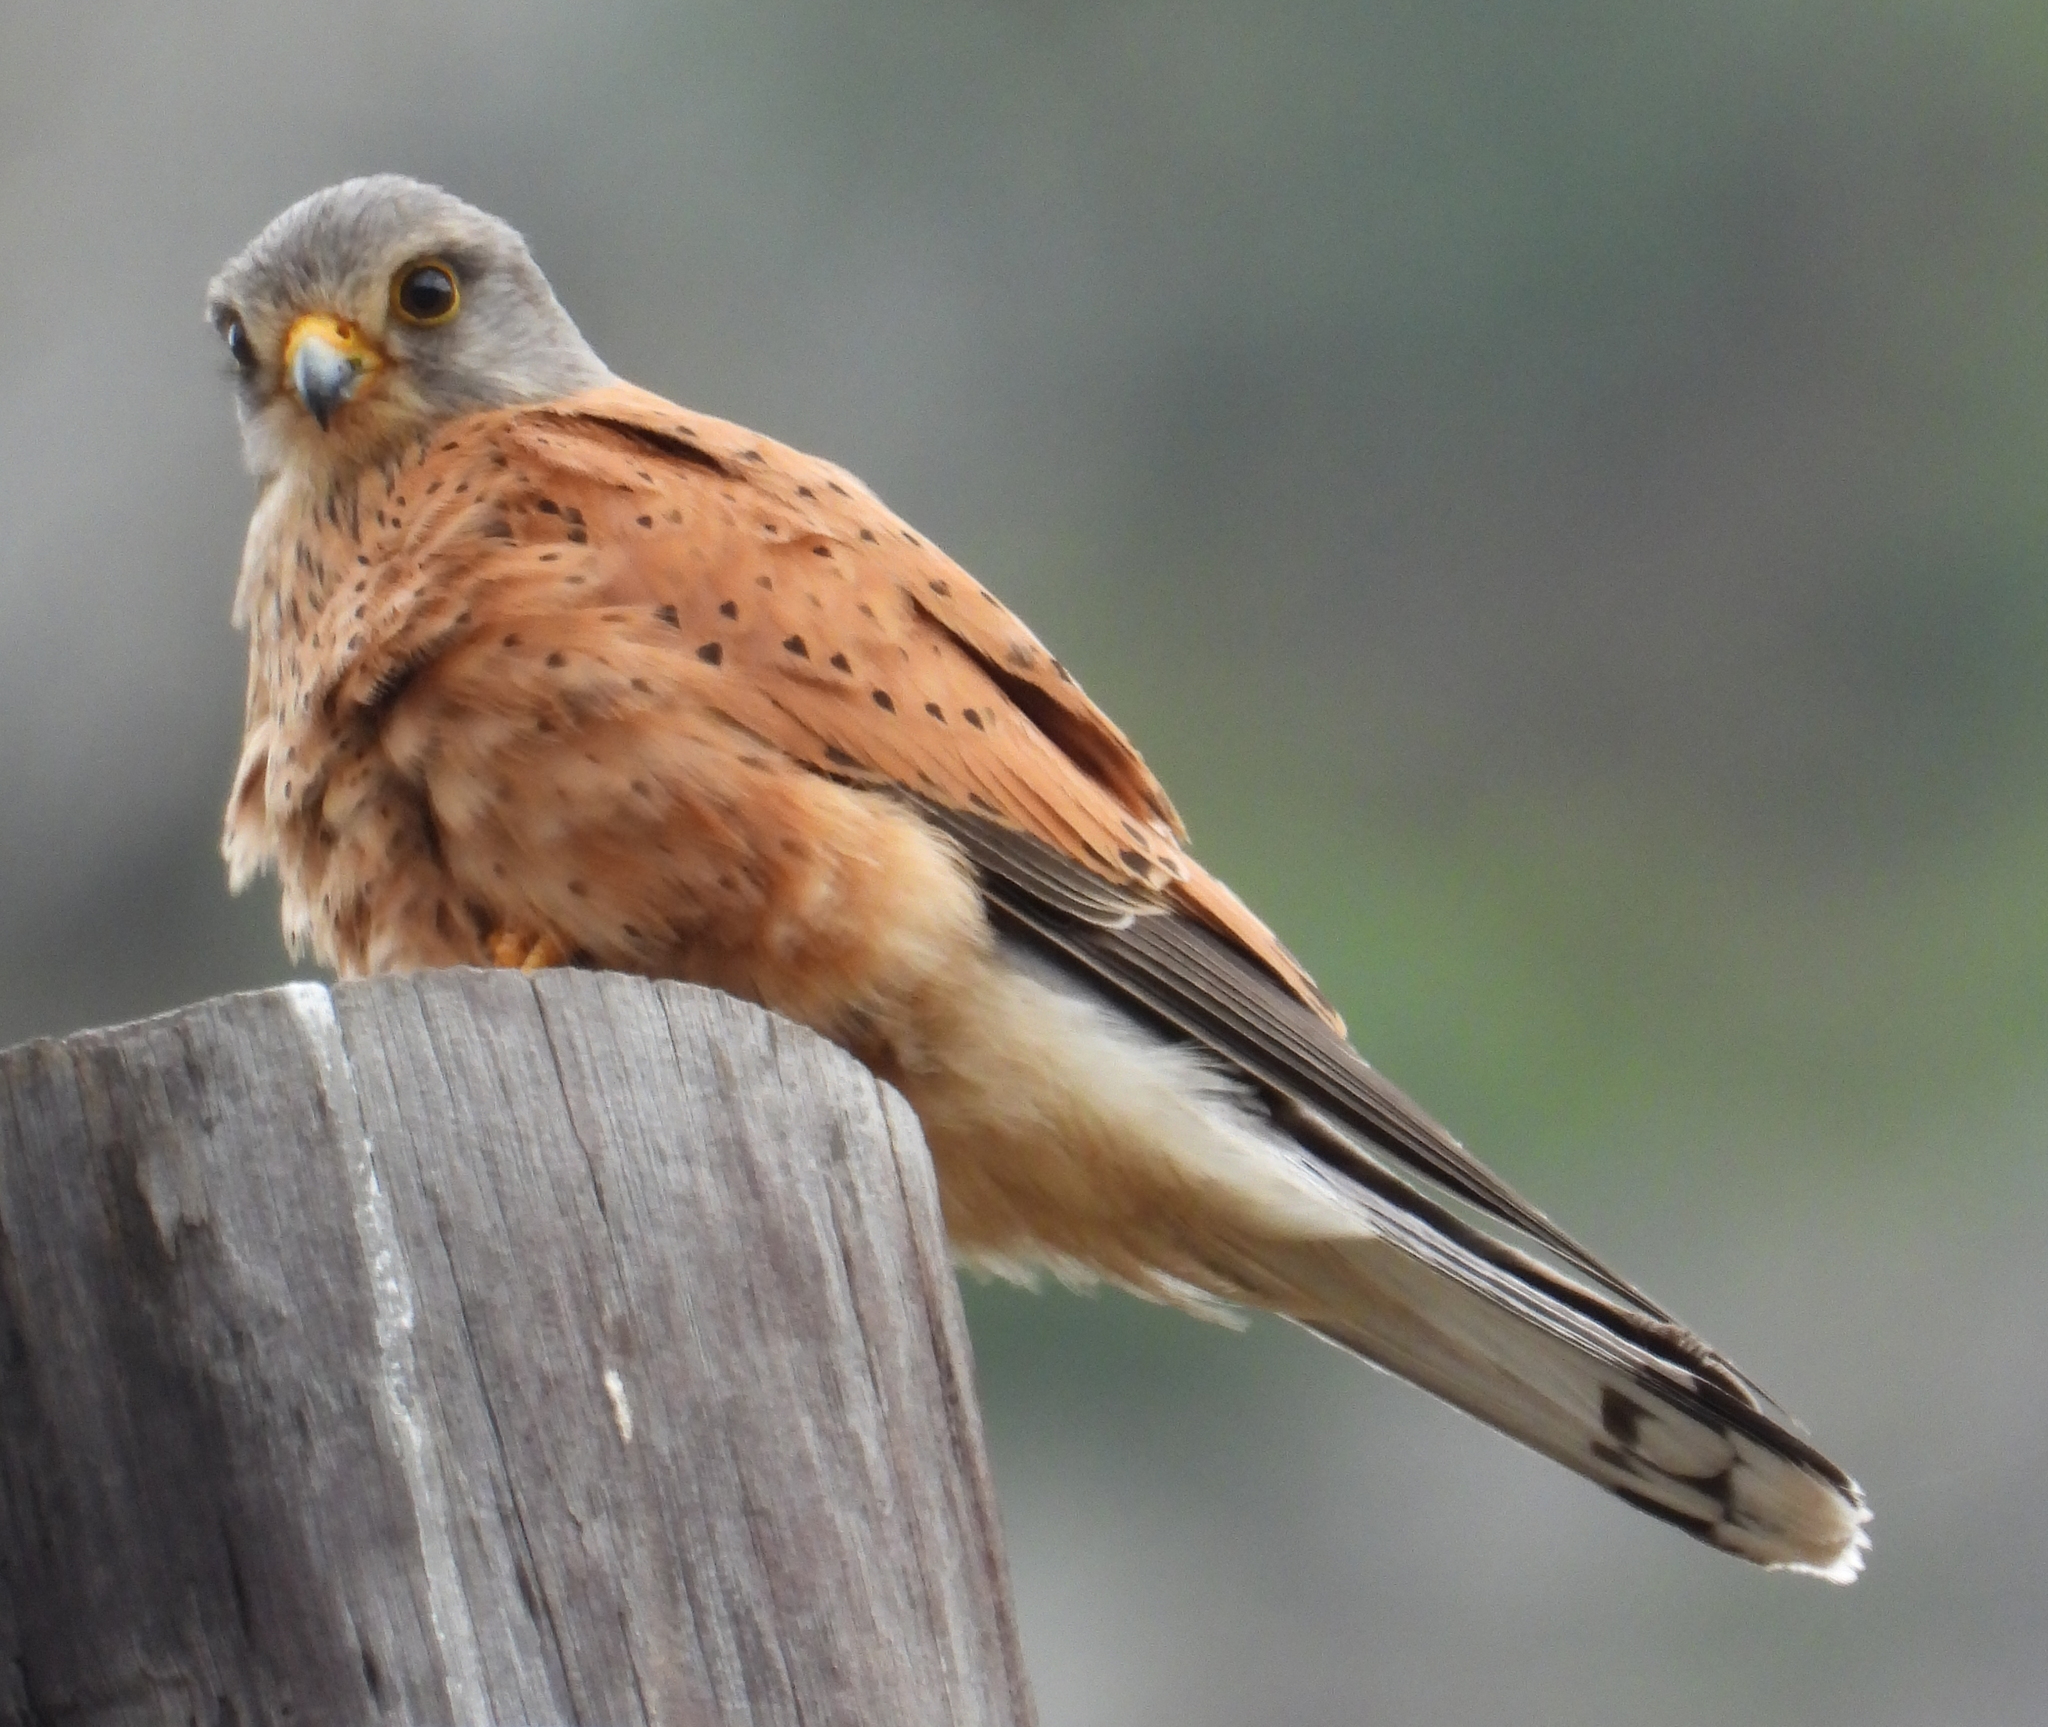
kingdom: Animalia
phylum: Chordata
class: Aves
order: Falconiformes
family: Falconidae
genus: Falco
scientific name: Falco rupicolus
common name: Rock kestrel
